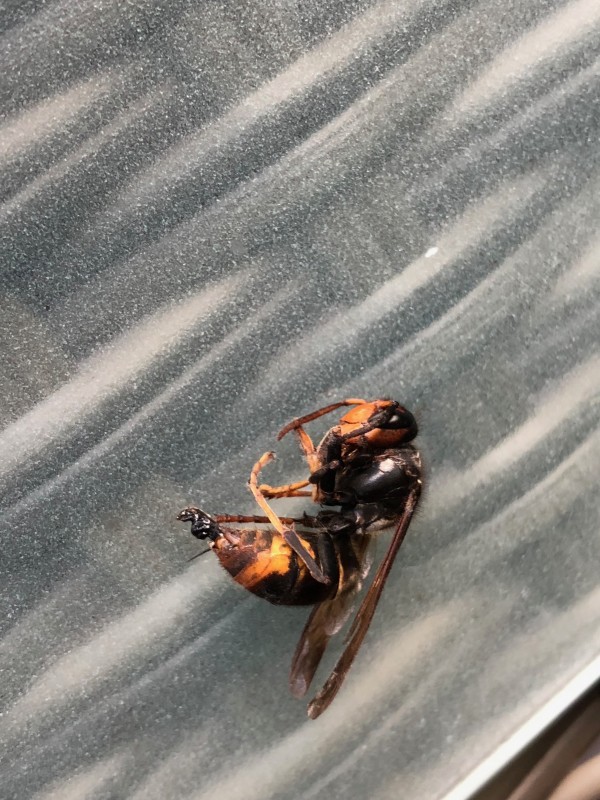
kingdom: Animalia
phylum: Arthropoda
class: Insecta
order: Hymenoptera
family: Vespidae
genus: Vespa
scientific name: Vespa velutina
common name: Asian hornet
